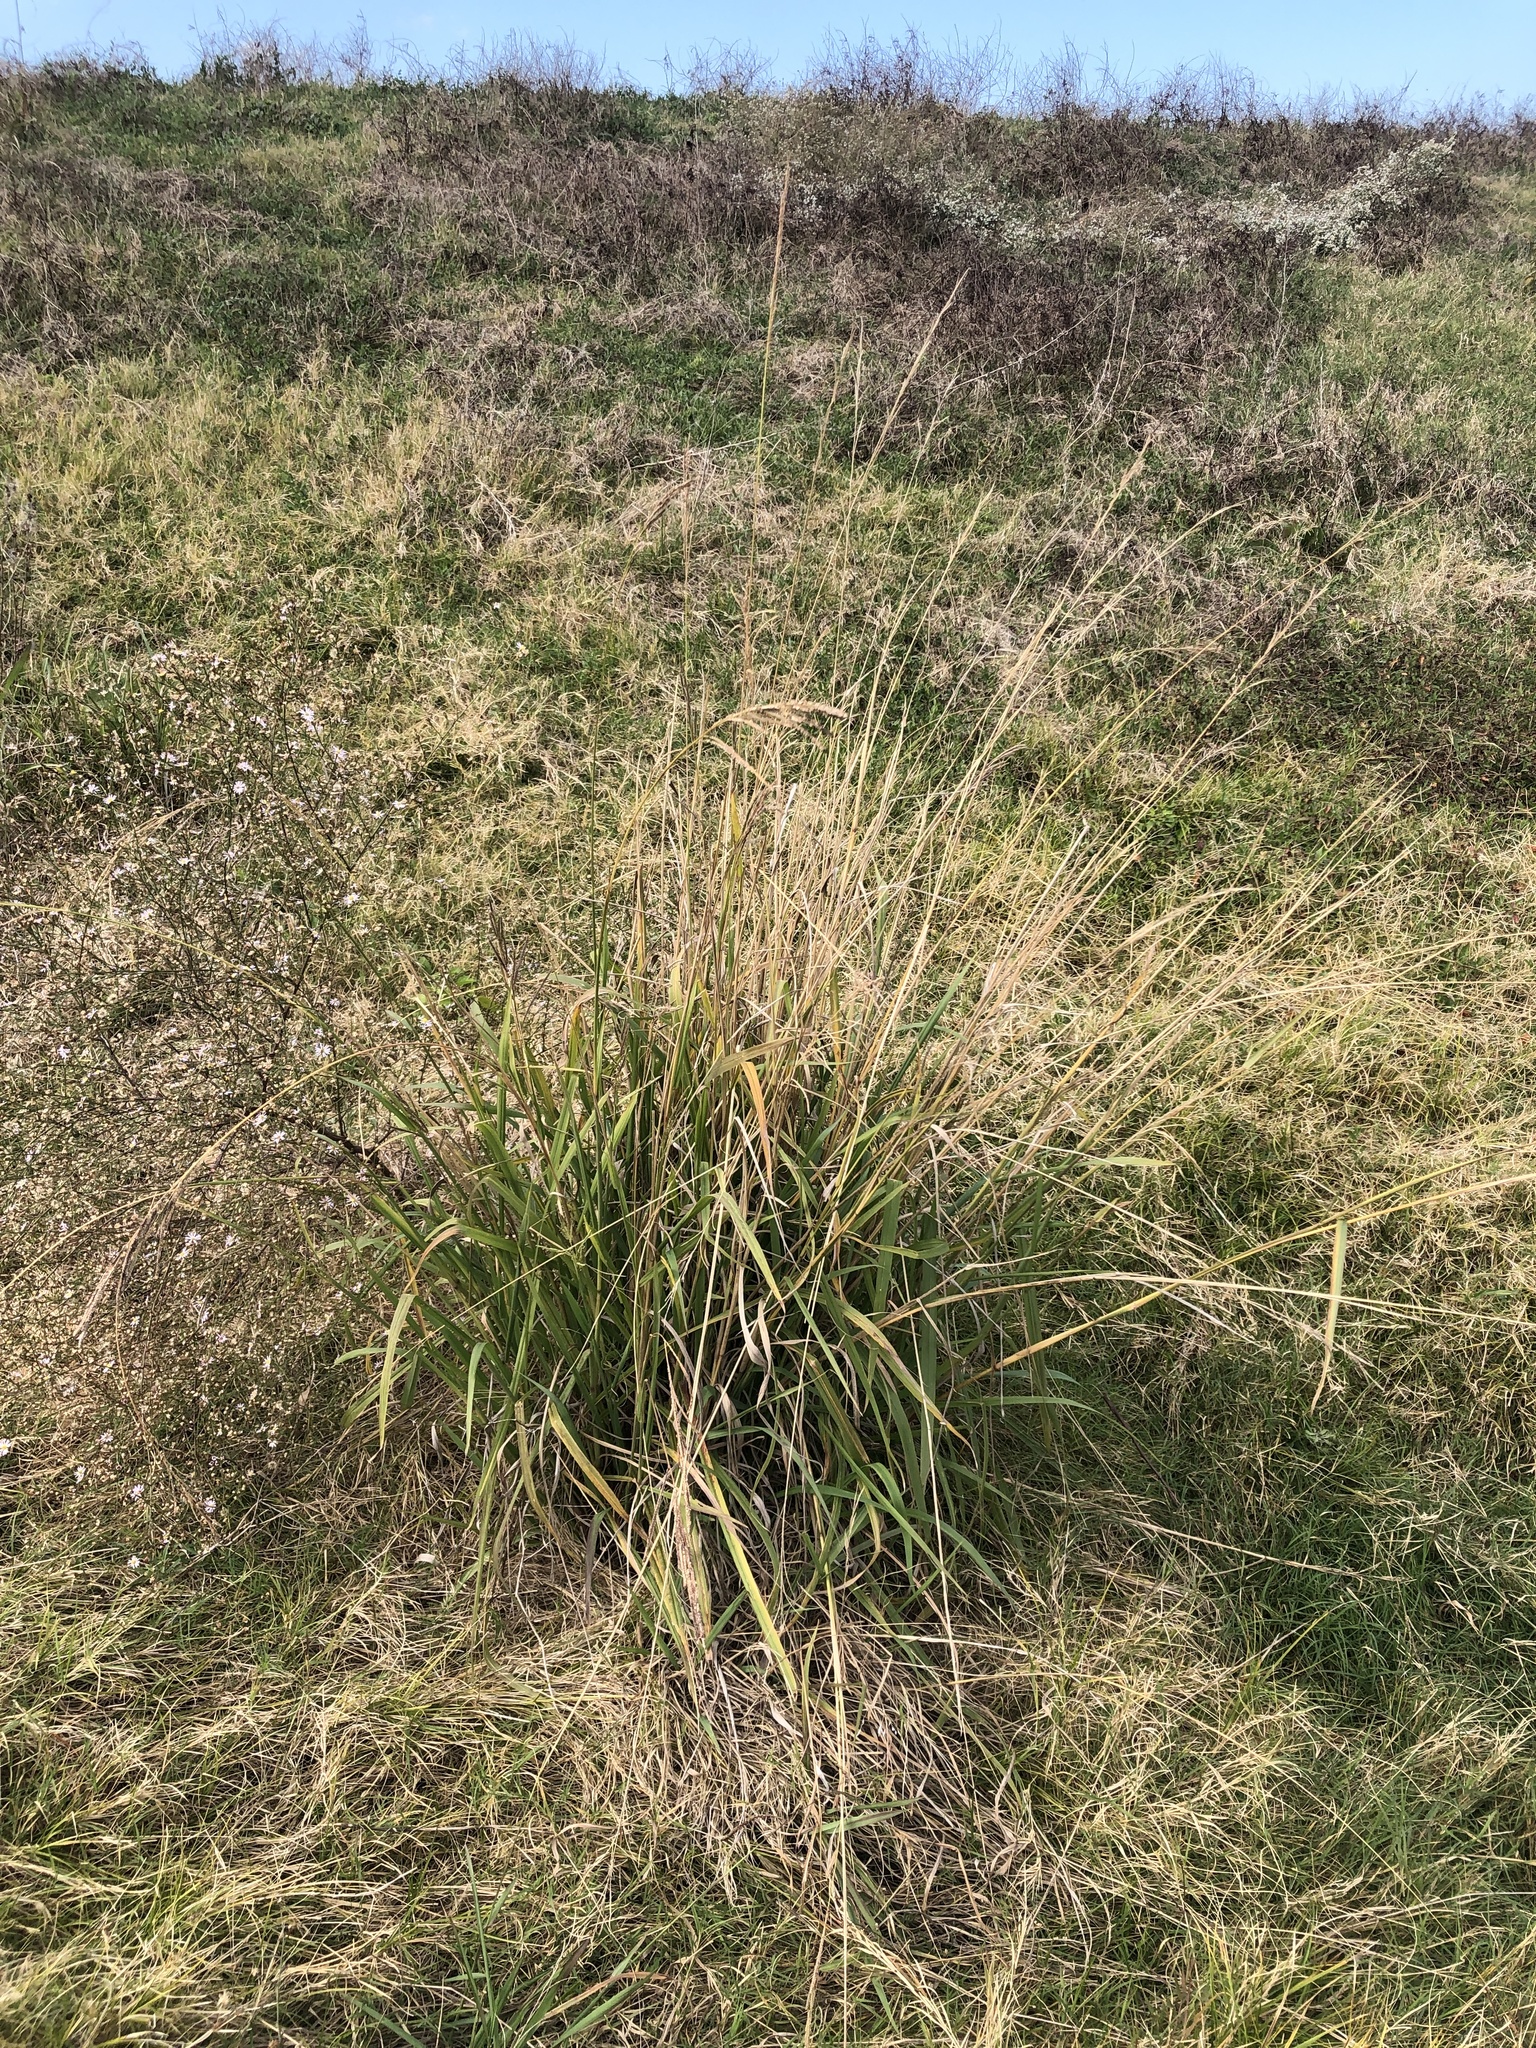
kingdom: Plantae
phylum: Tracheophyta
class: Liliopsida
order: Poales
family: Poaceae
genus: Paspalum
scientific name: Paspalum urvillei
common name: Vasey's grass
